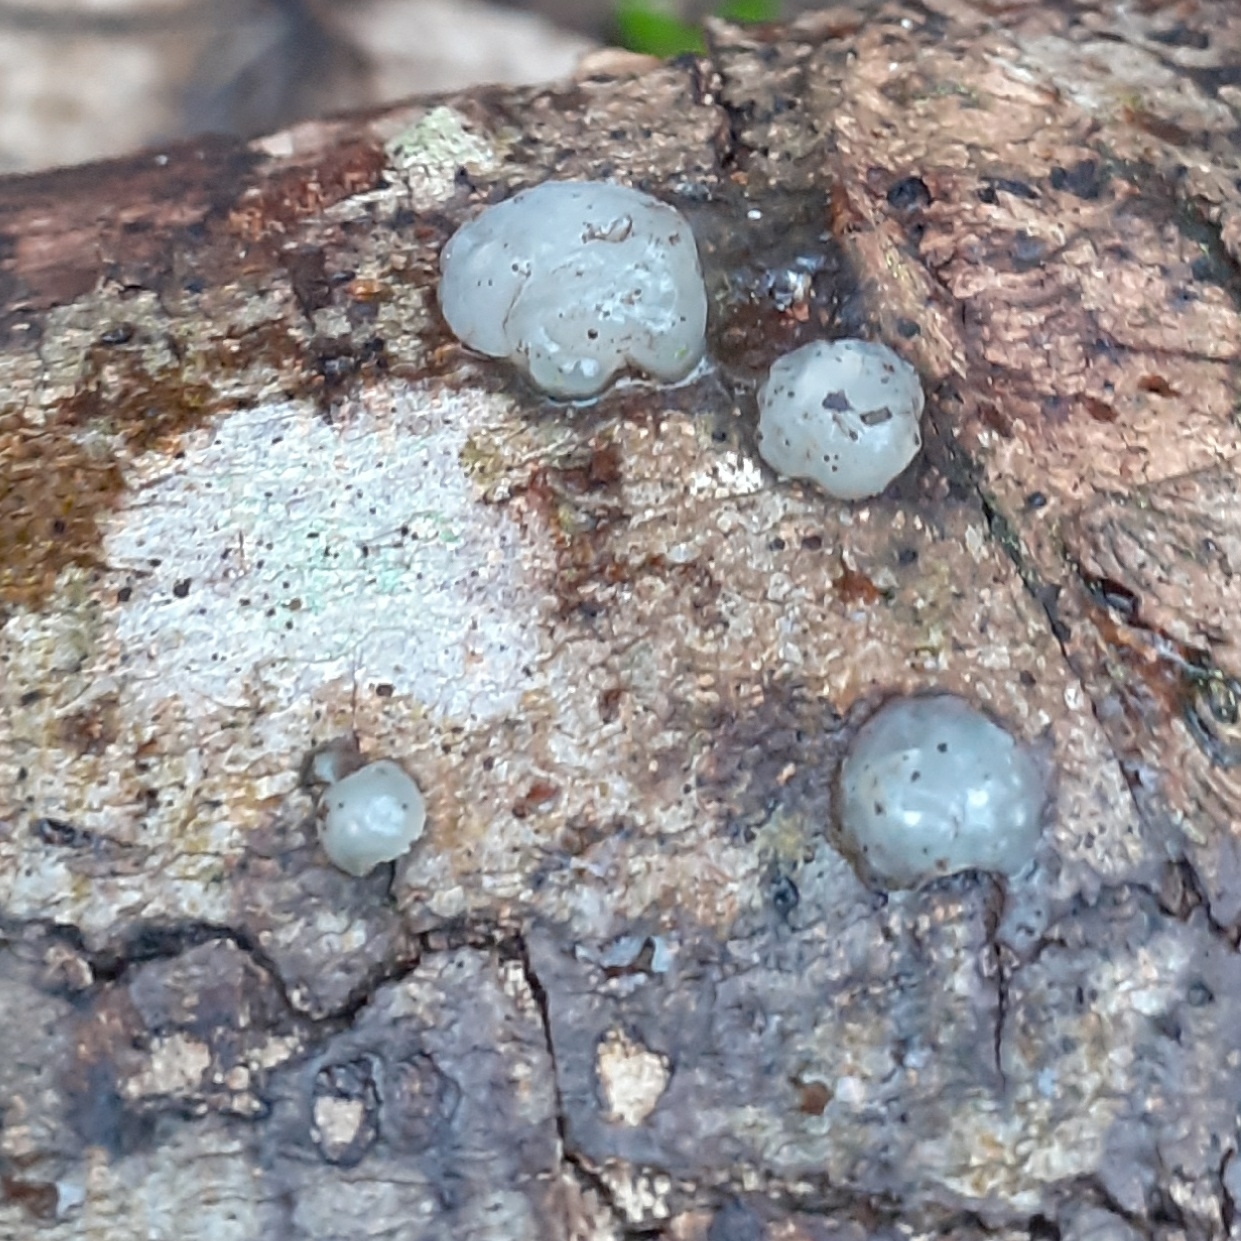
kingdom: Fungi
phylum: Basidiomycota
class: Agaricomycetes
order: Auriculariales
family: Hyaloriaceae
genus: Myxarium
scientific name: Myxarium nucleatum
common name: Crystal brain fungus
